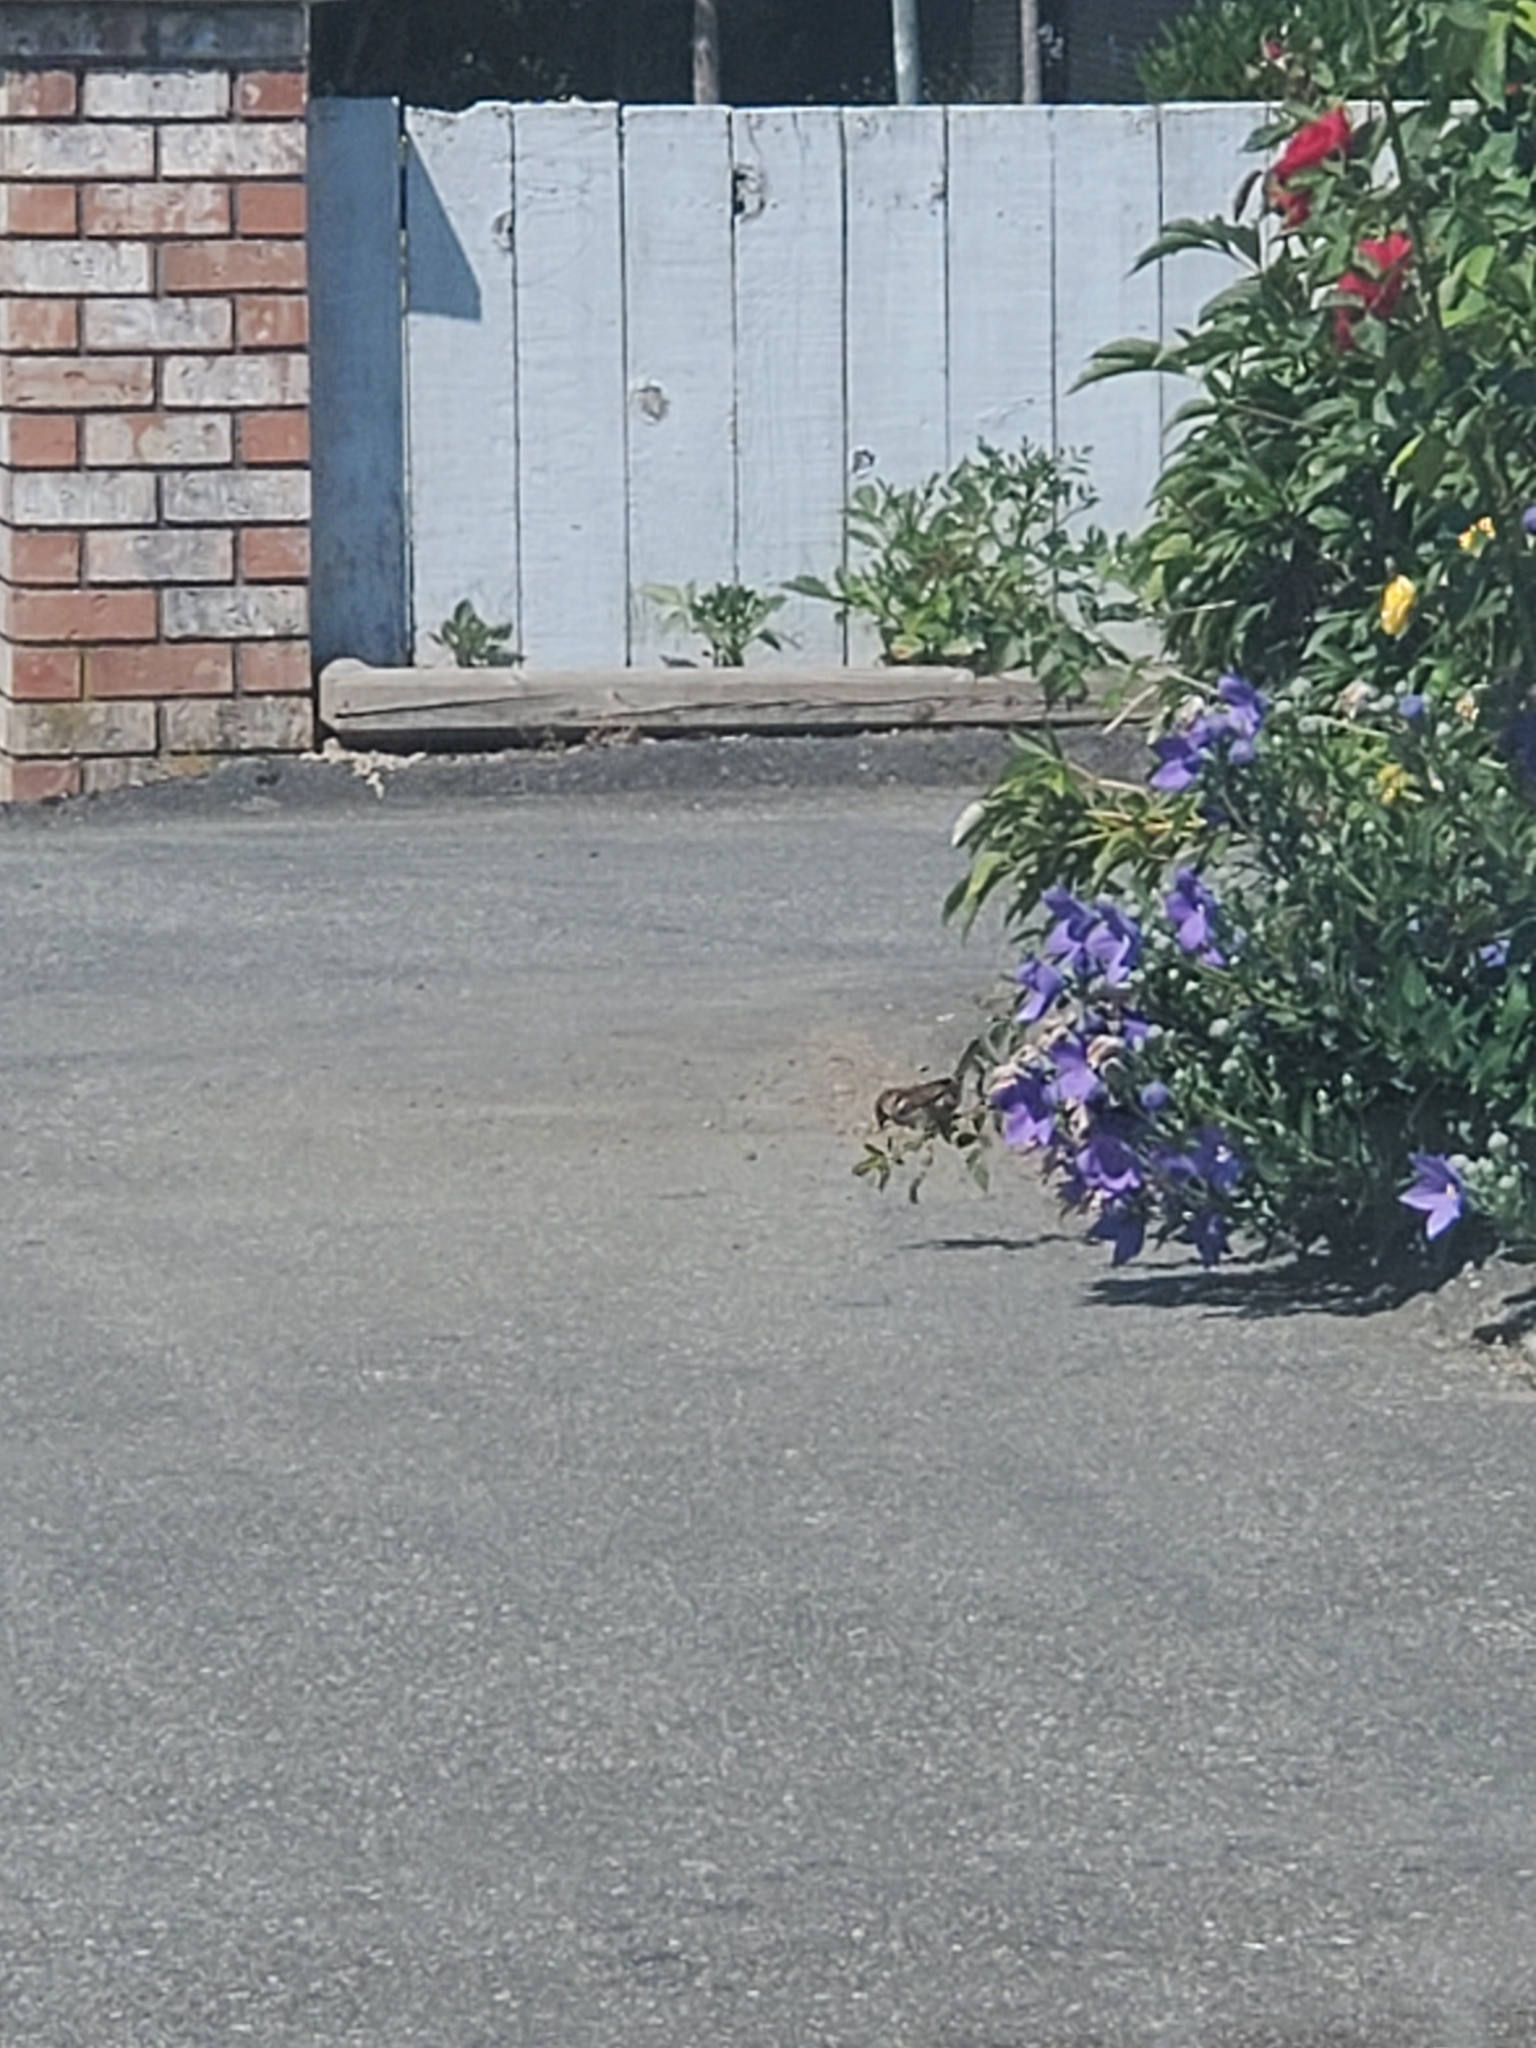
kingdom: Animalia
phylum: Chordata
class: Aves
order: Passeriformes
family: Passeridae
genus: Passer
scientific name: Passer domesticus
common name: House sparrow
